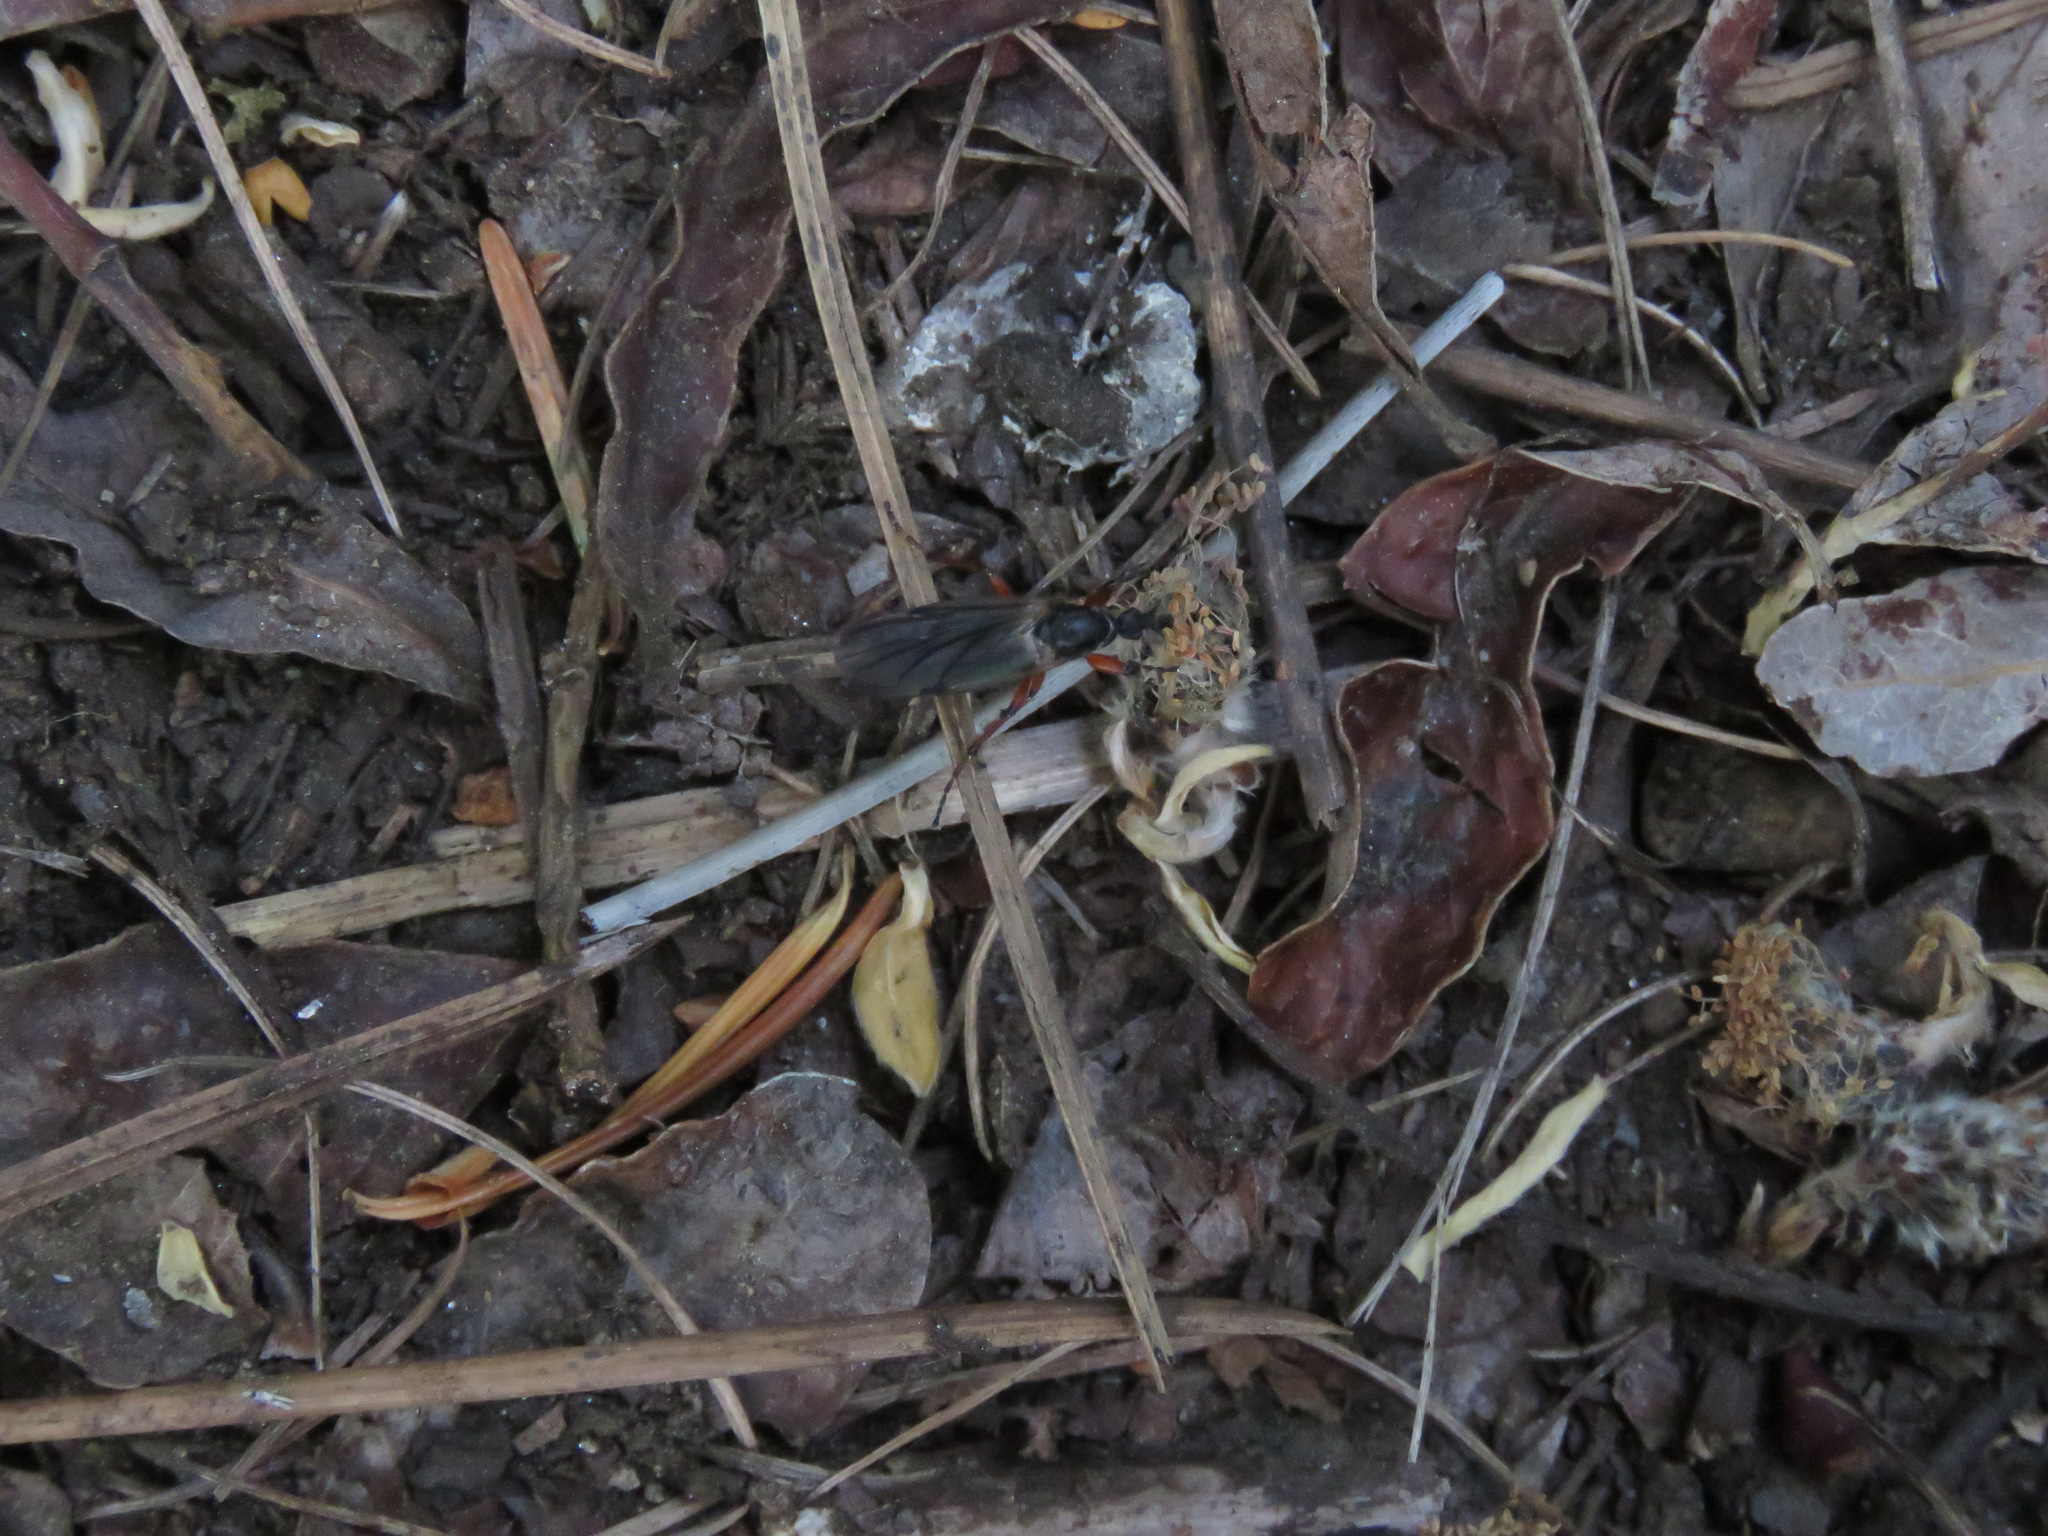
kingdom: Animalia
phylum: Arthropoda
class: Insecta
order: Diptera
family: Bibionidae
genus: Bibio
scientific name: Bibio
